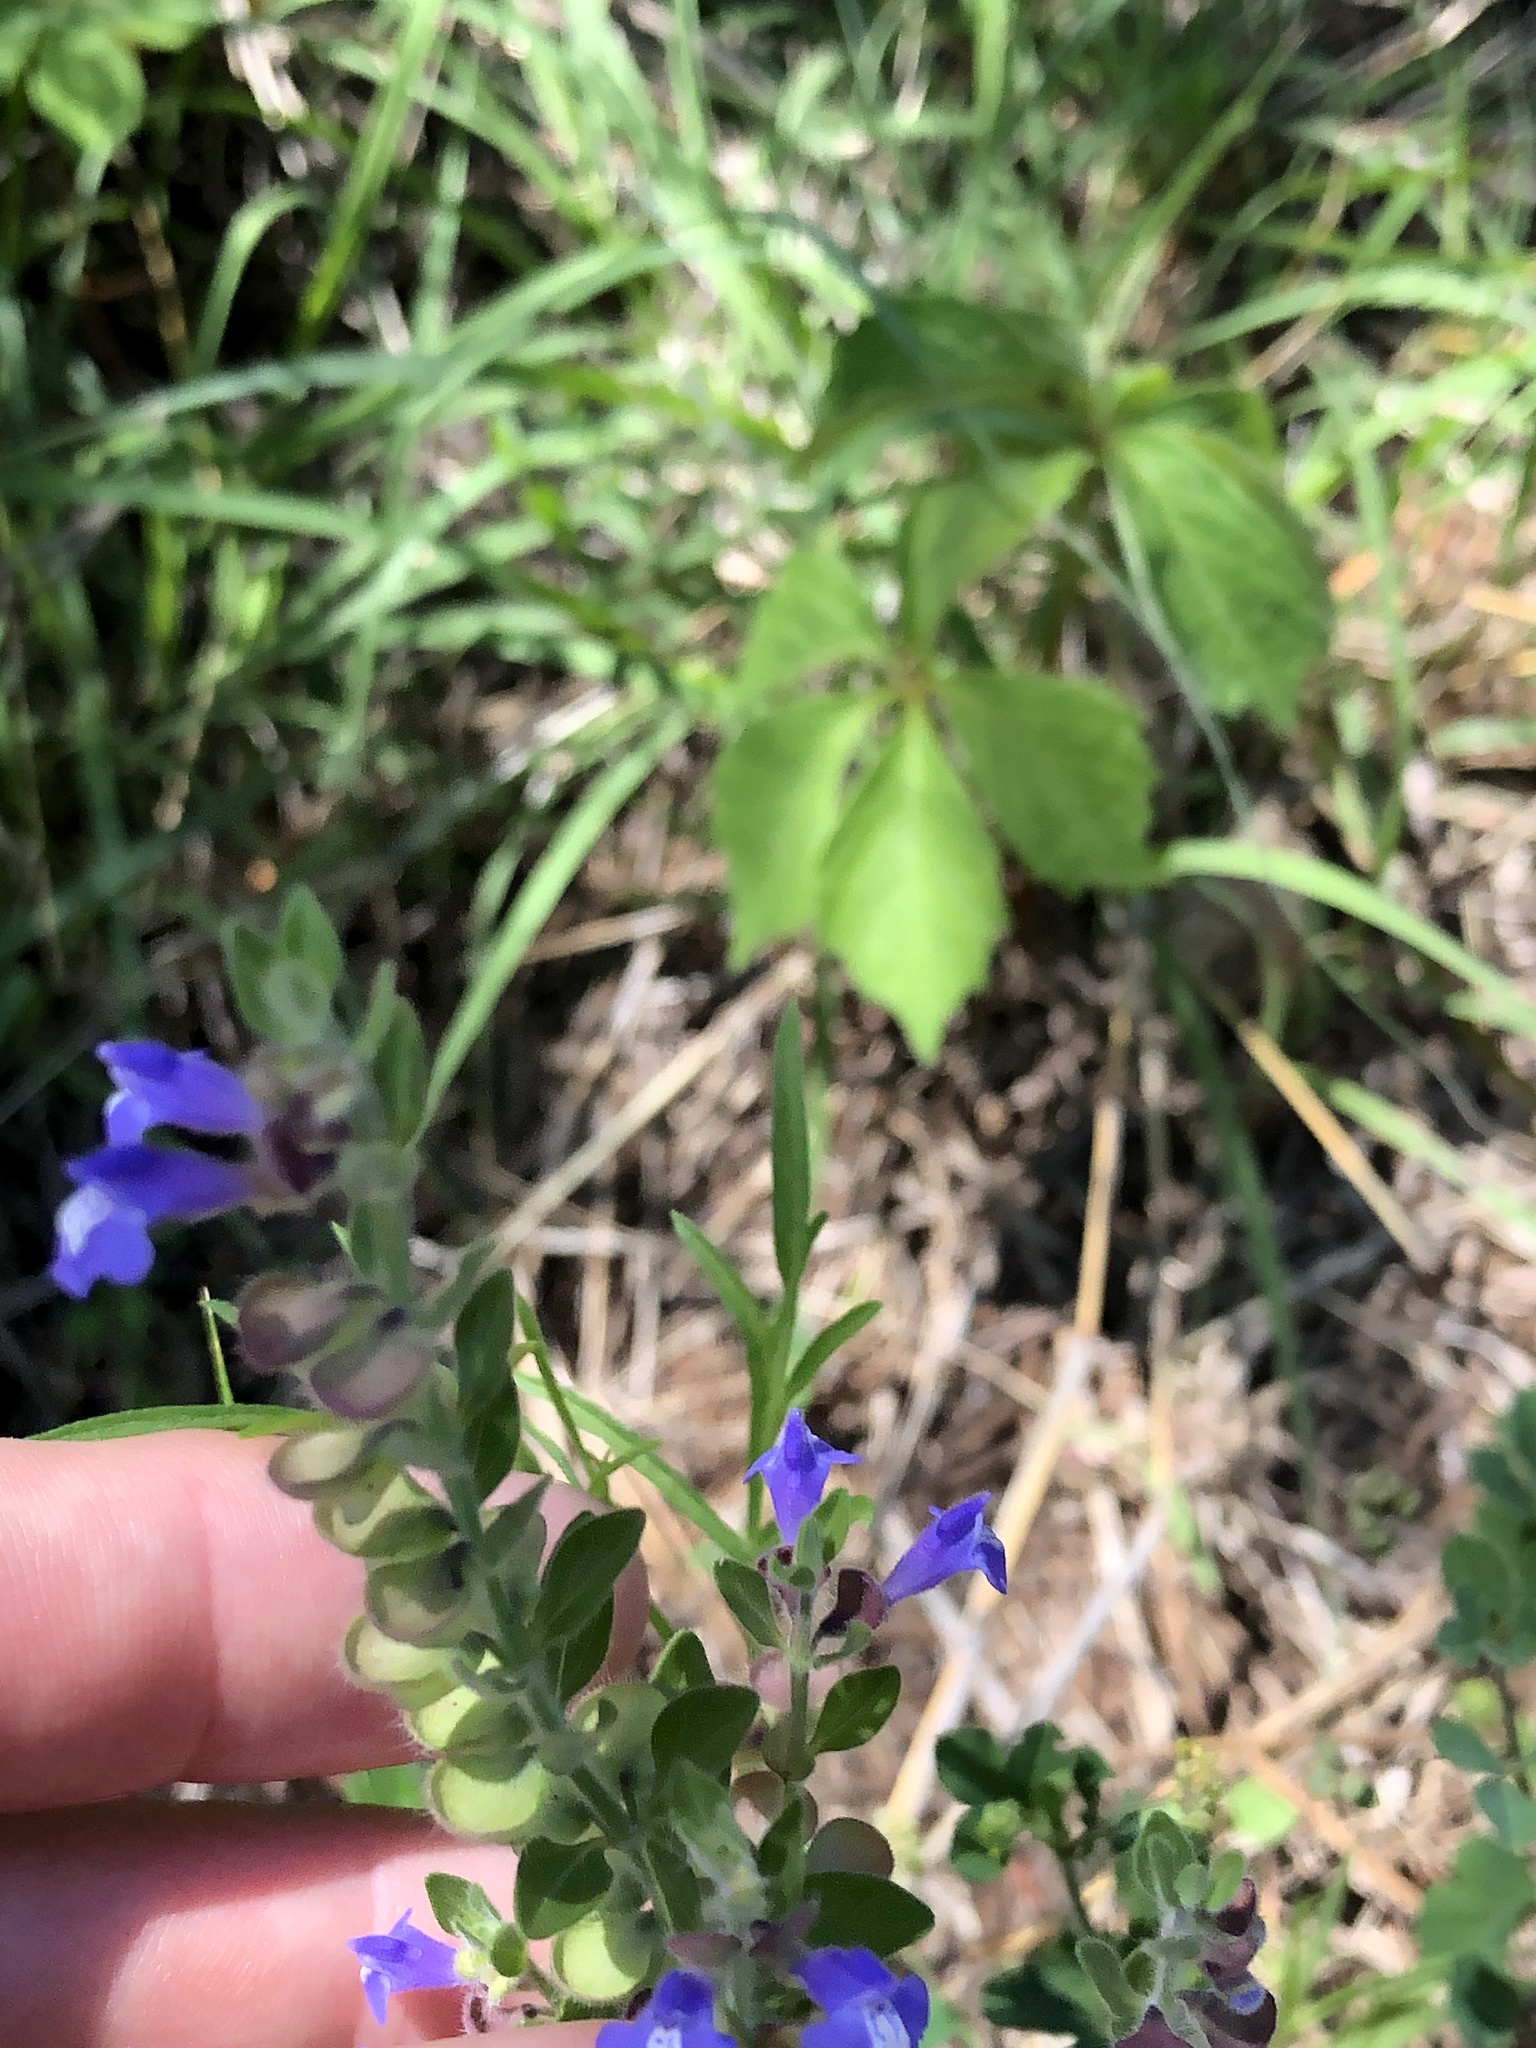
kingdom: Plantae
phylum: Tracheophyta
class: Magnoliopsida
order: Lamiales
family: Lamiaceae
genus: Scutellaria
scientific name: Scutellaria drummondii
